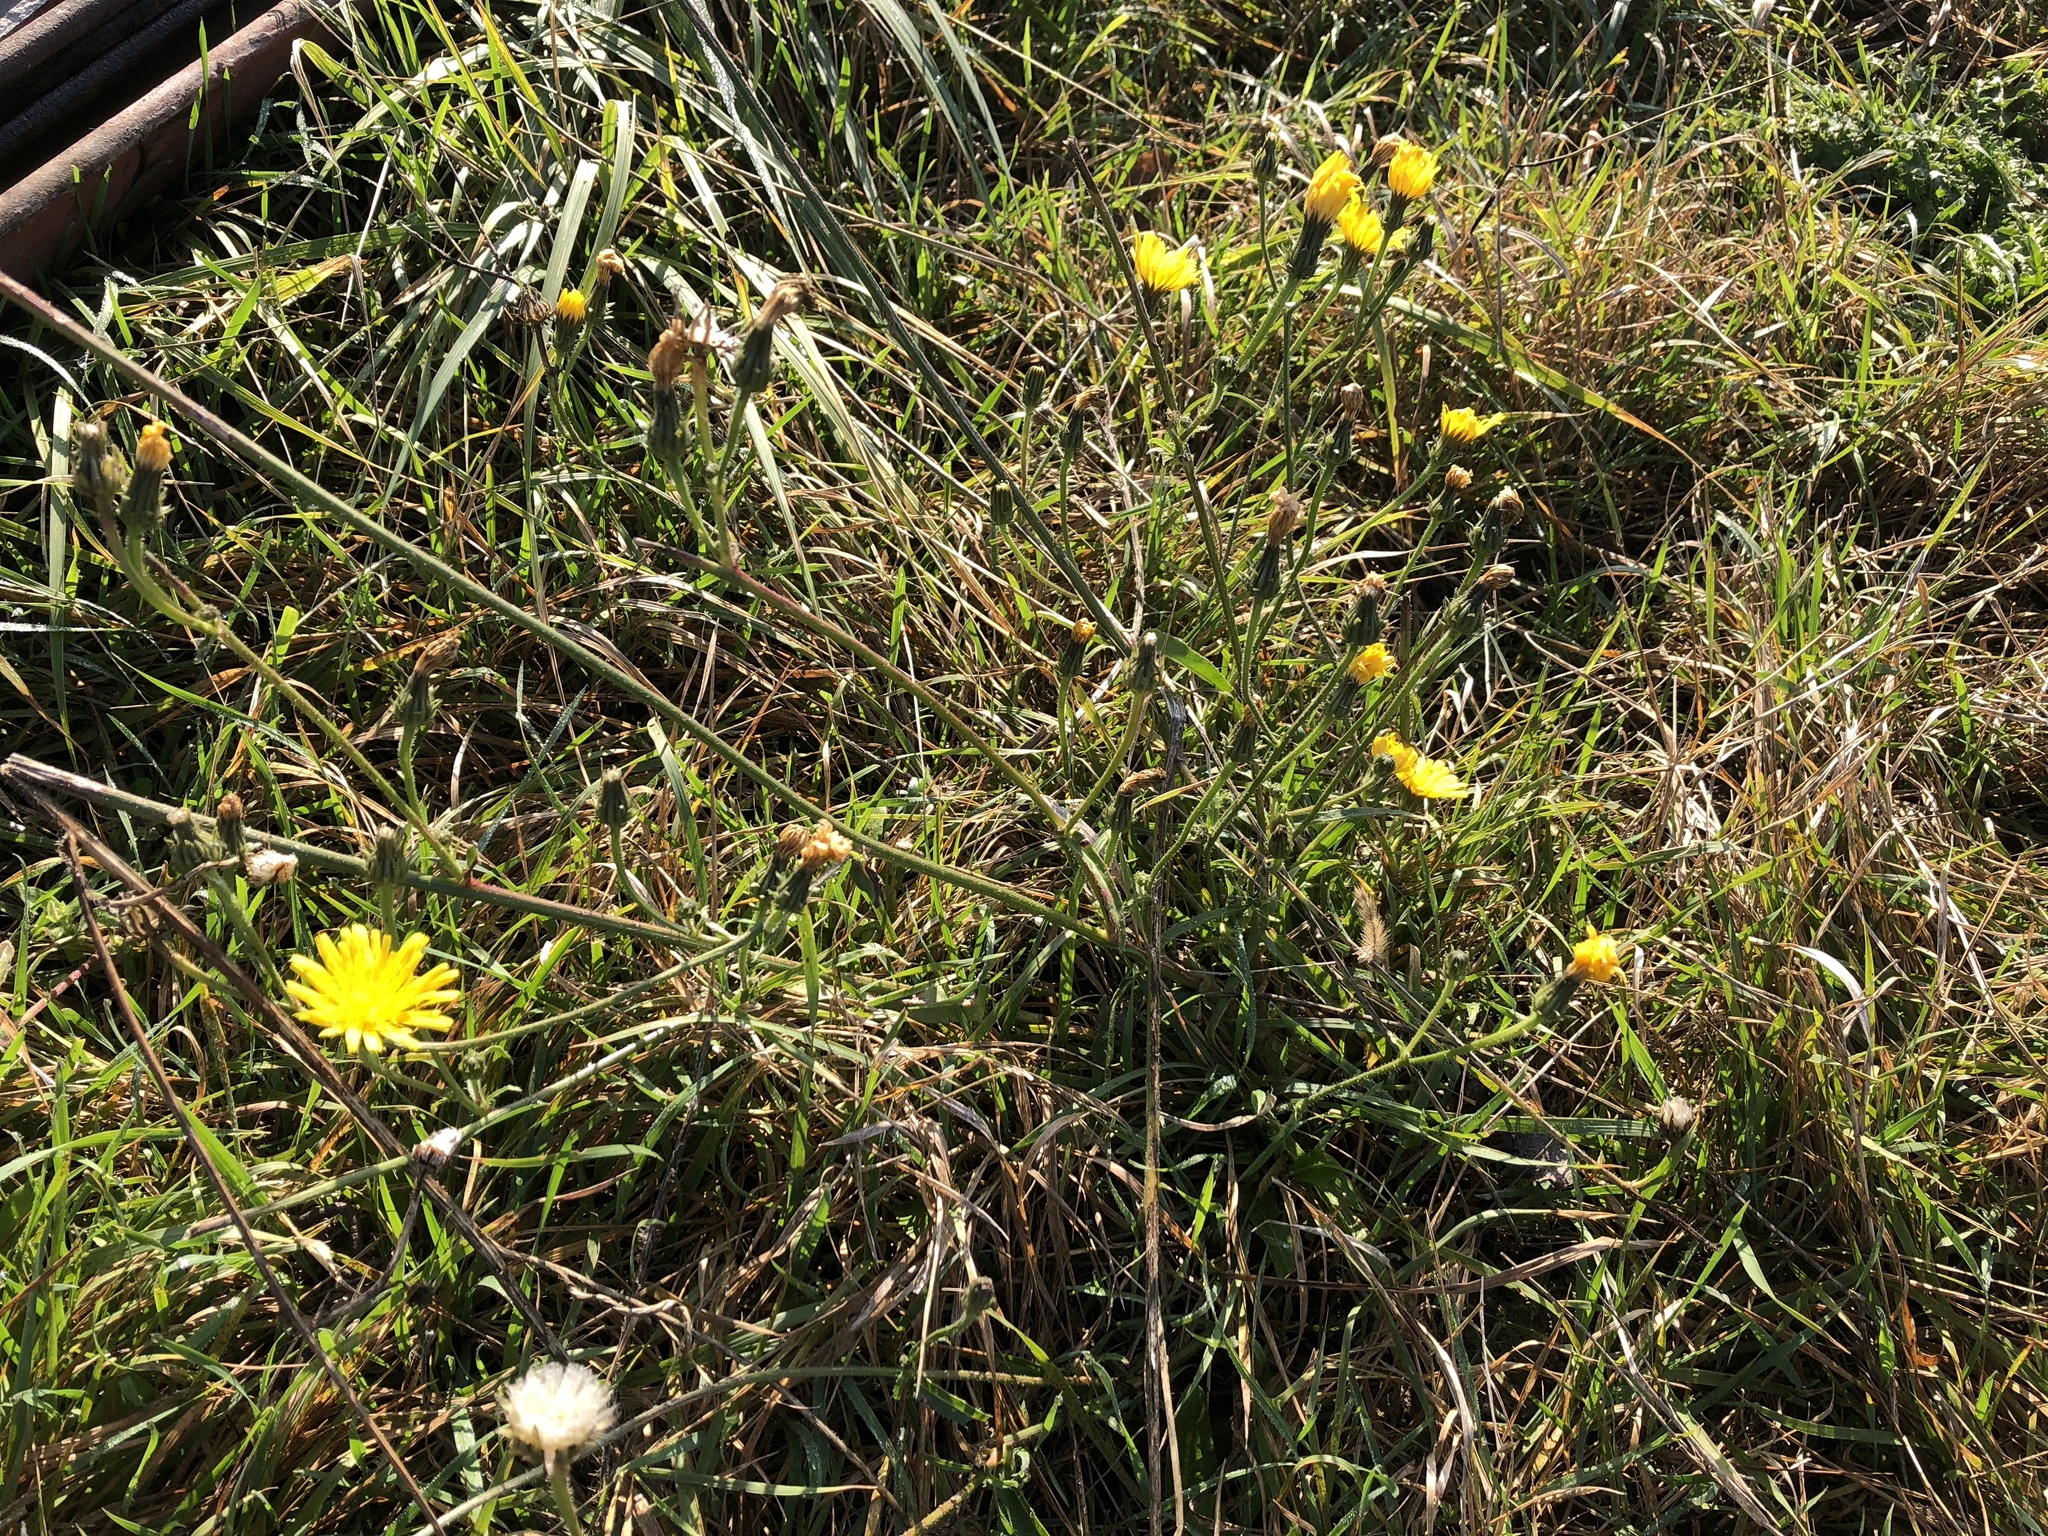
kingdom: Plantae
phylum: Tracheophyta
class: Magnoliopsida
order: Asterales
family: Asteraceae
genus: Picris
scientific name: Picris hieracioides
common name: Hawkweed oxtongue
